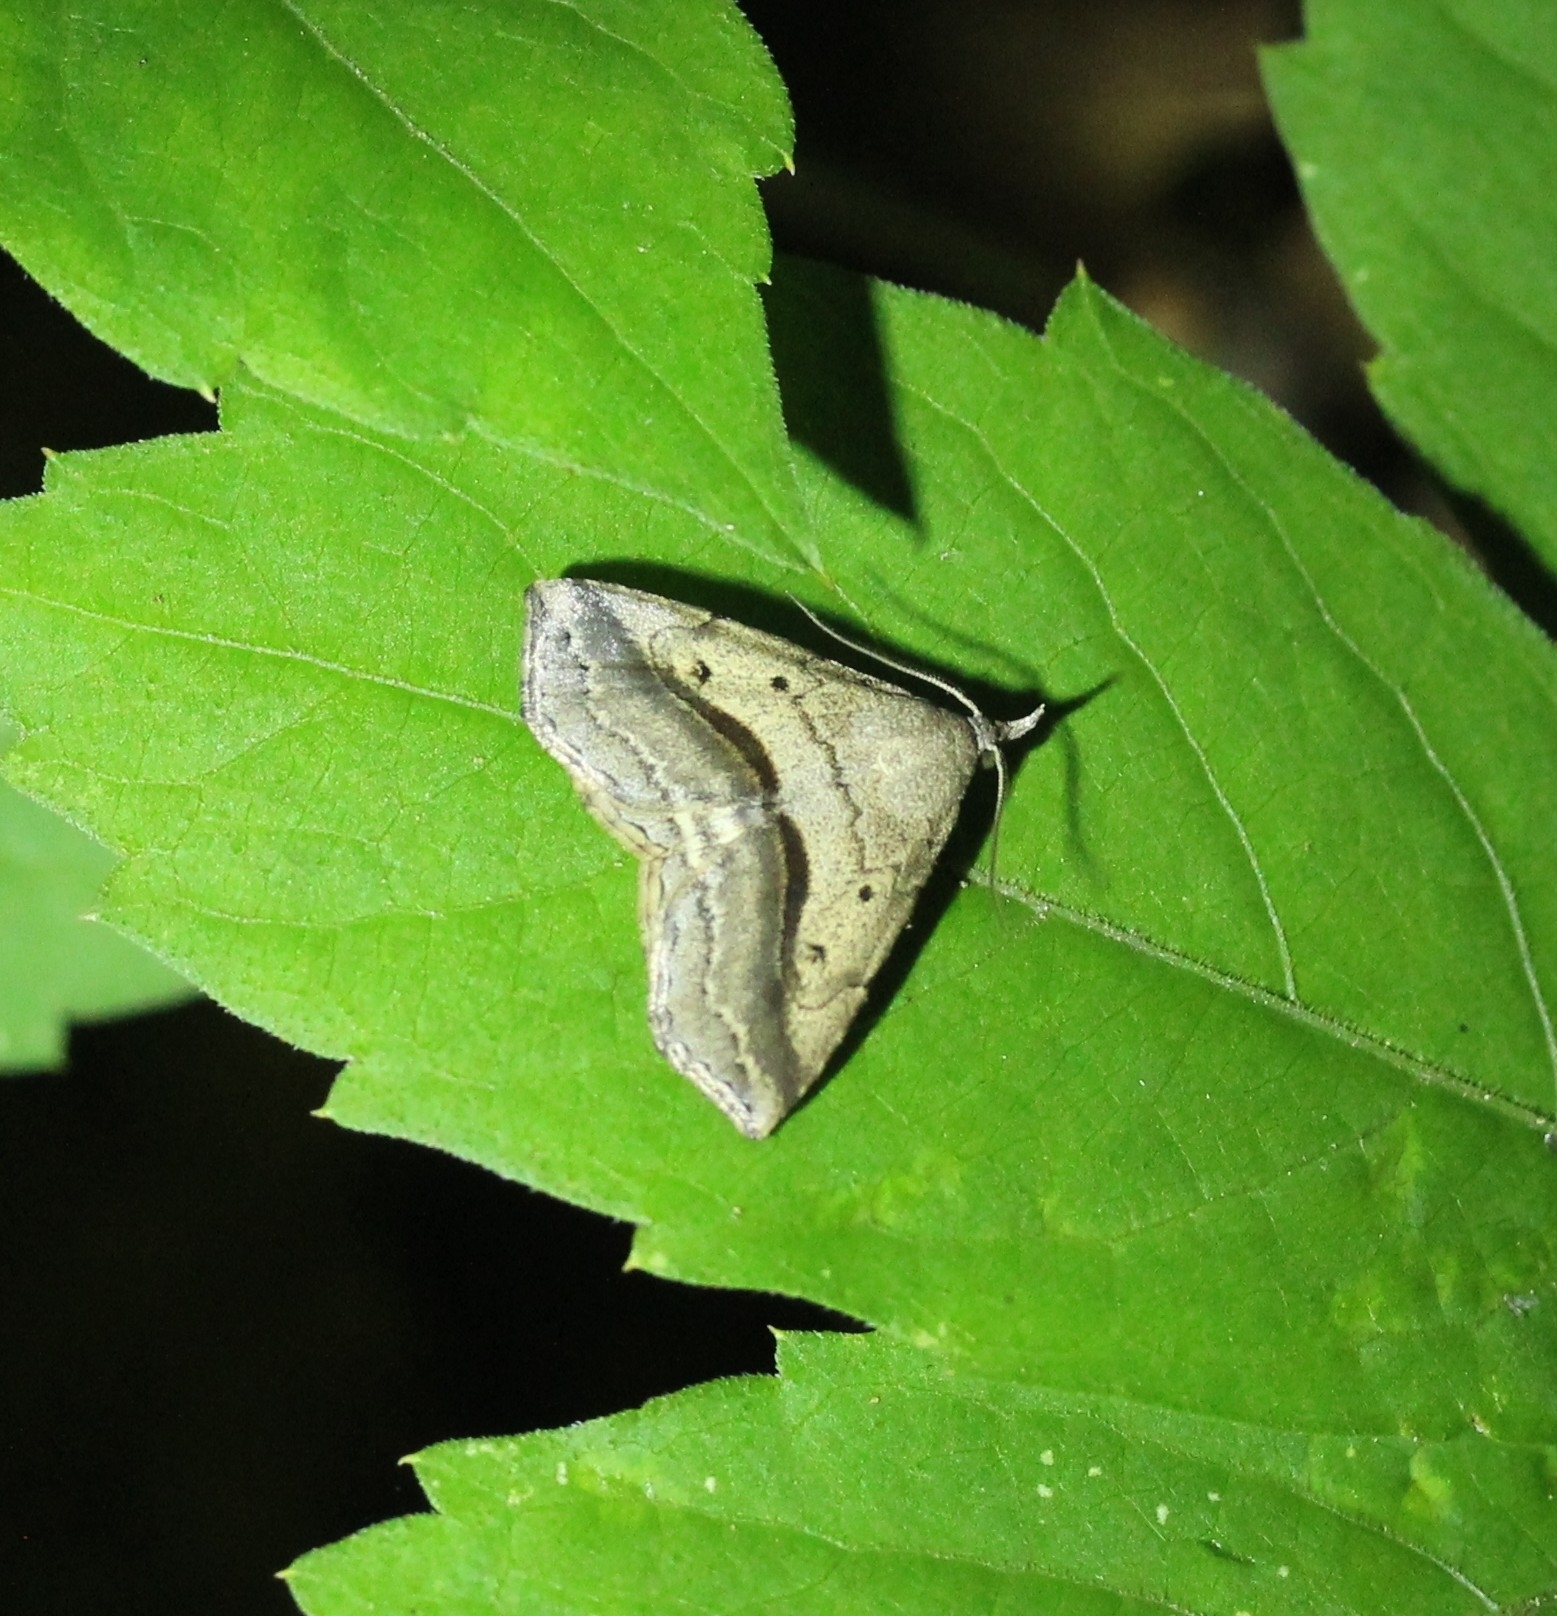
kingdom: Animalia
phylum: Arthropoda
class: Insecta
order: Lepidoptera
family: Erebidae
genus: Spargaloma
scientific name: Spargaloma perditalis
